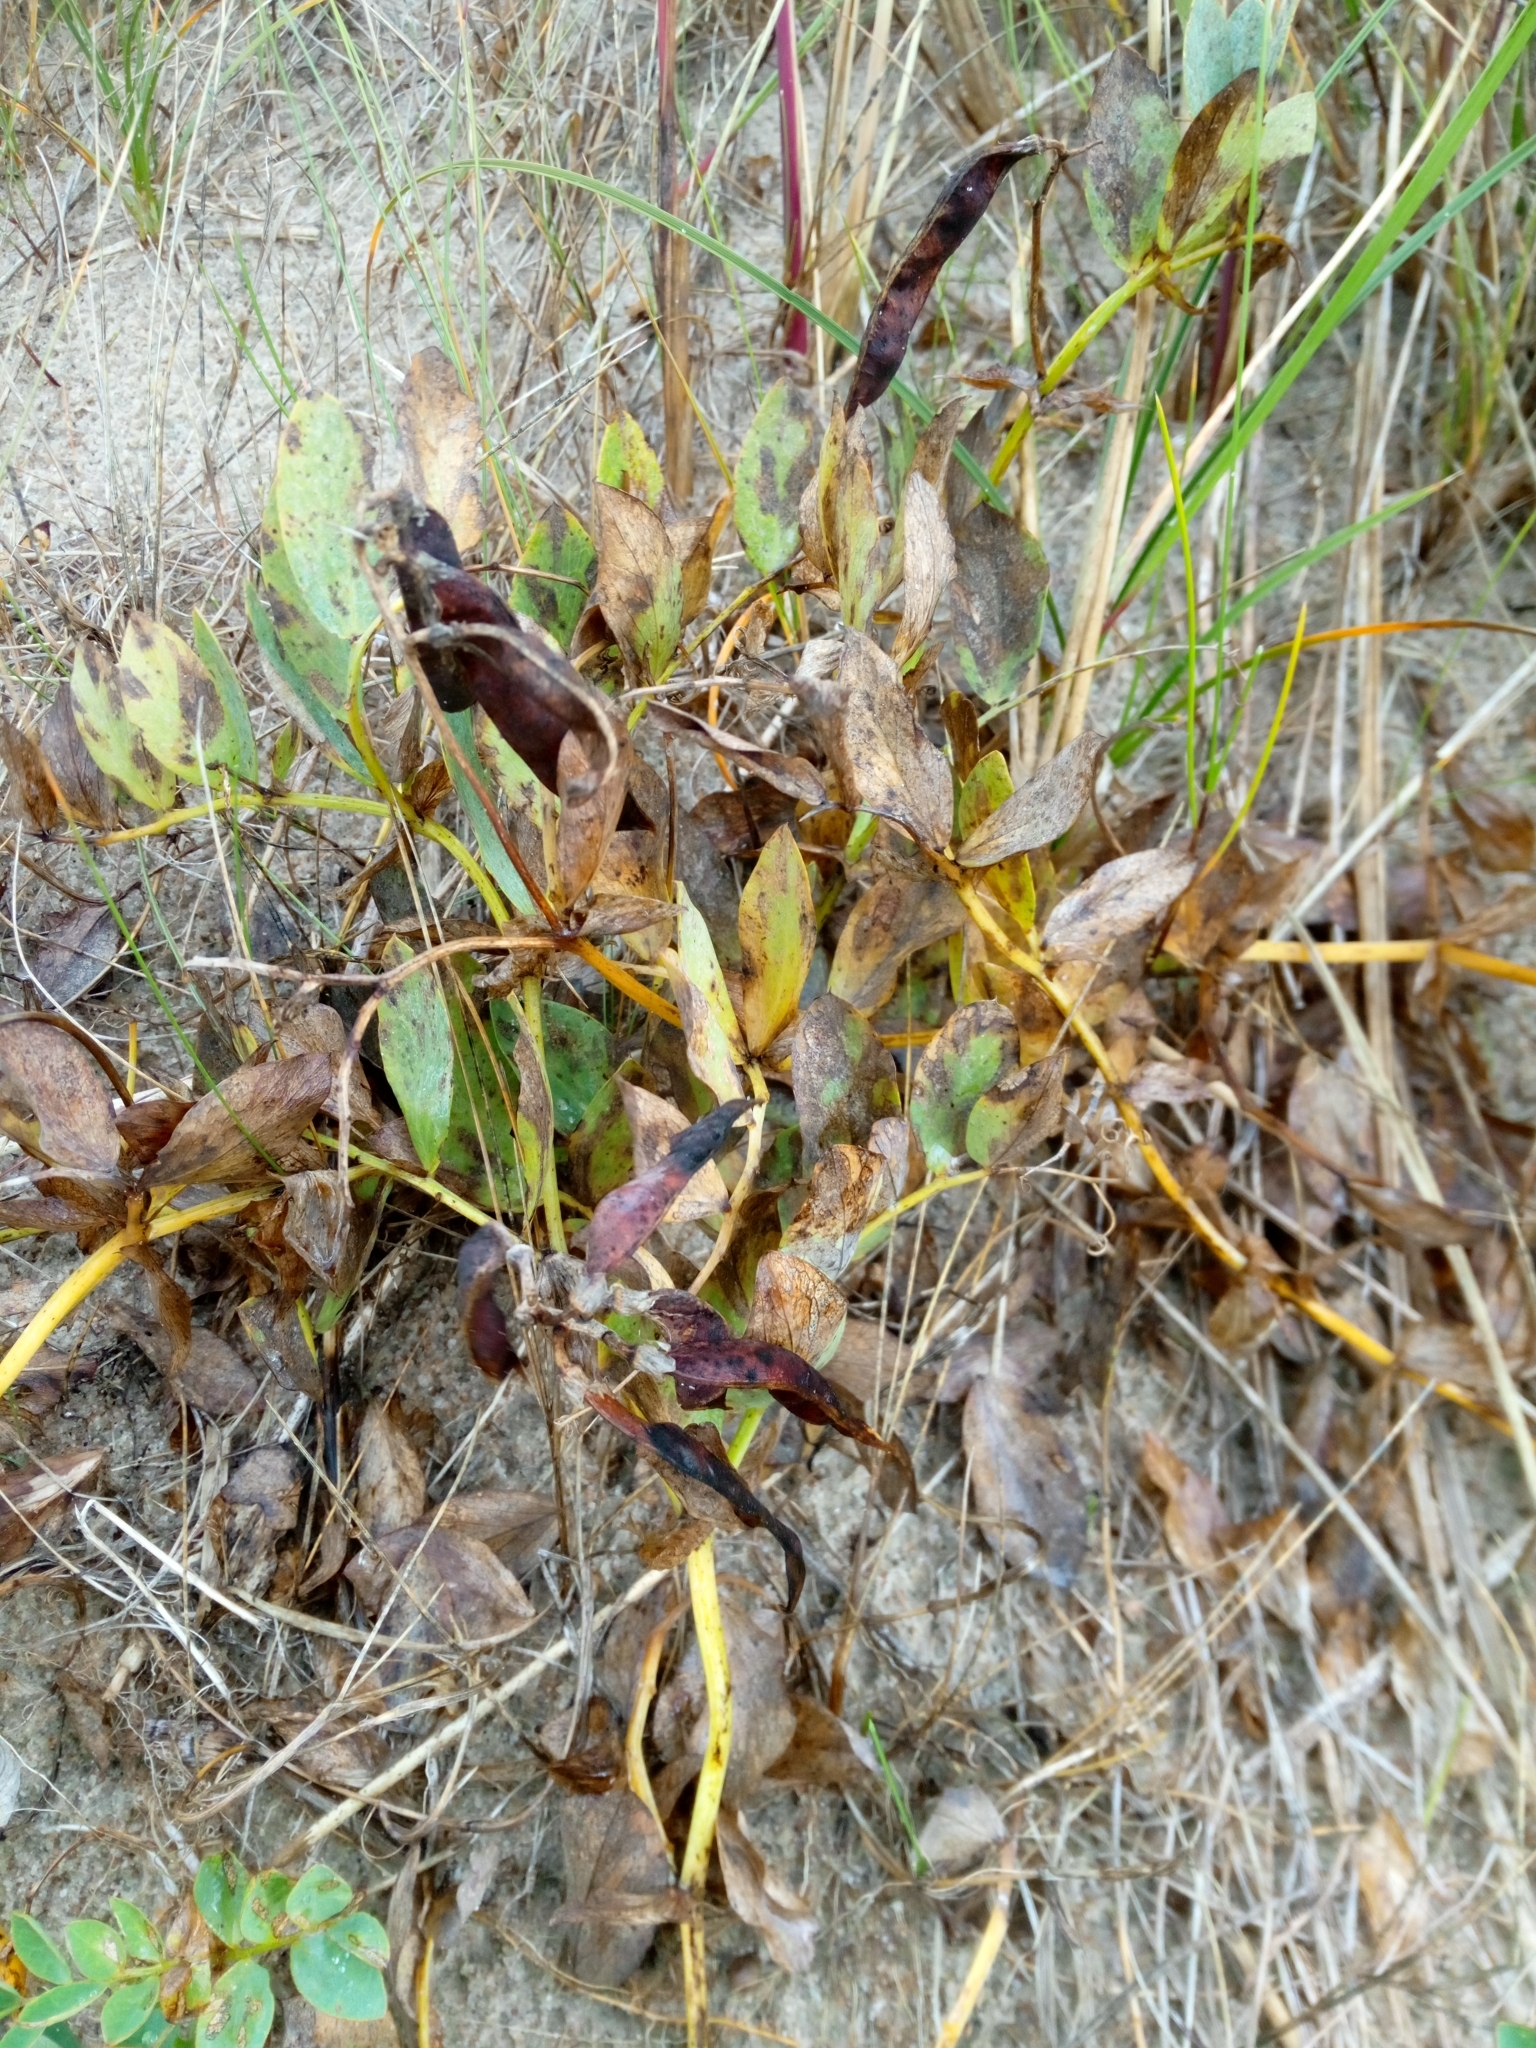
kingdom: Plantae
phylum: Tracheophyta
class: Magnoliopsida
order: Fabales
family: Fabaceae
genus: Lathyrus
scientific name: Lathyrus japonicus
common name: Sea pea
